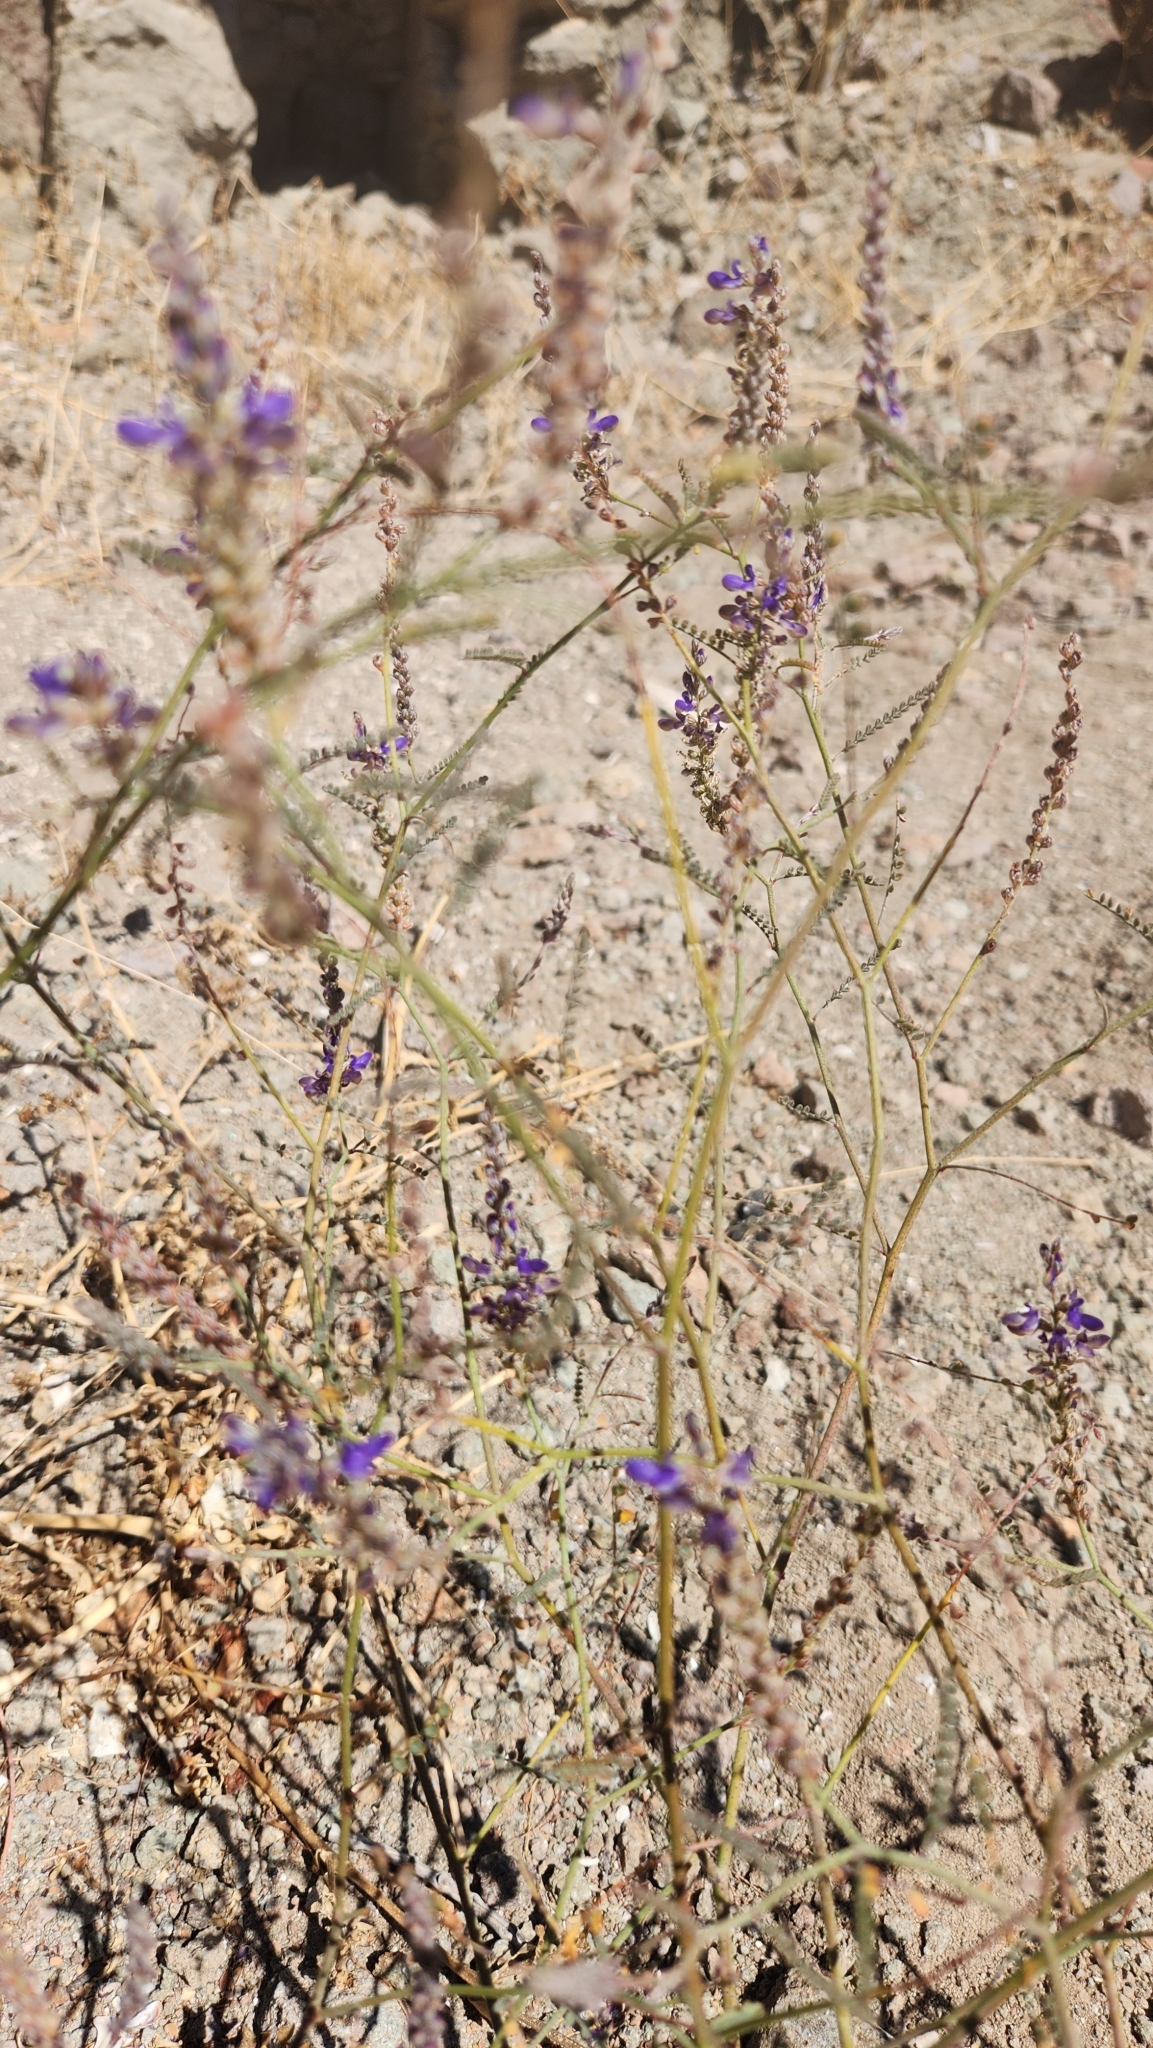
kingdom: Plantae
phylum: Tracheophyta
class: Magnoliopsida
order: Fabales
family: Fabaceae
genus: Marina
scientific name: Marina parryi
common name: Parry's marina
